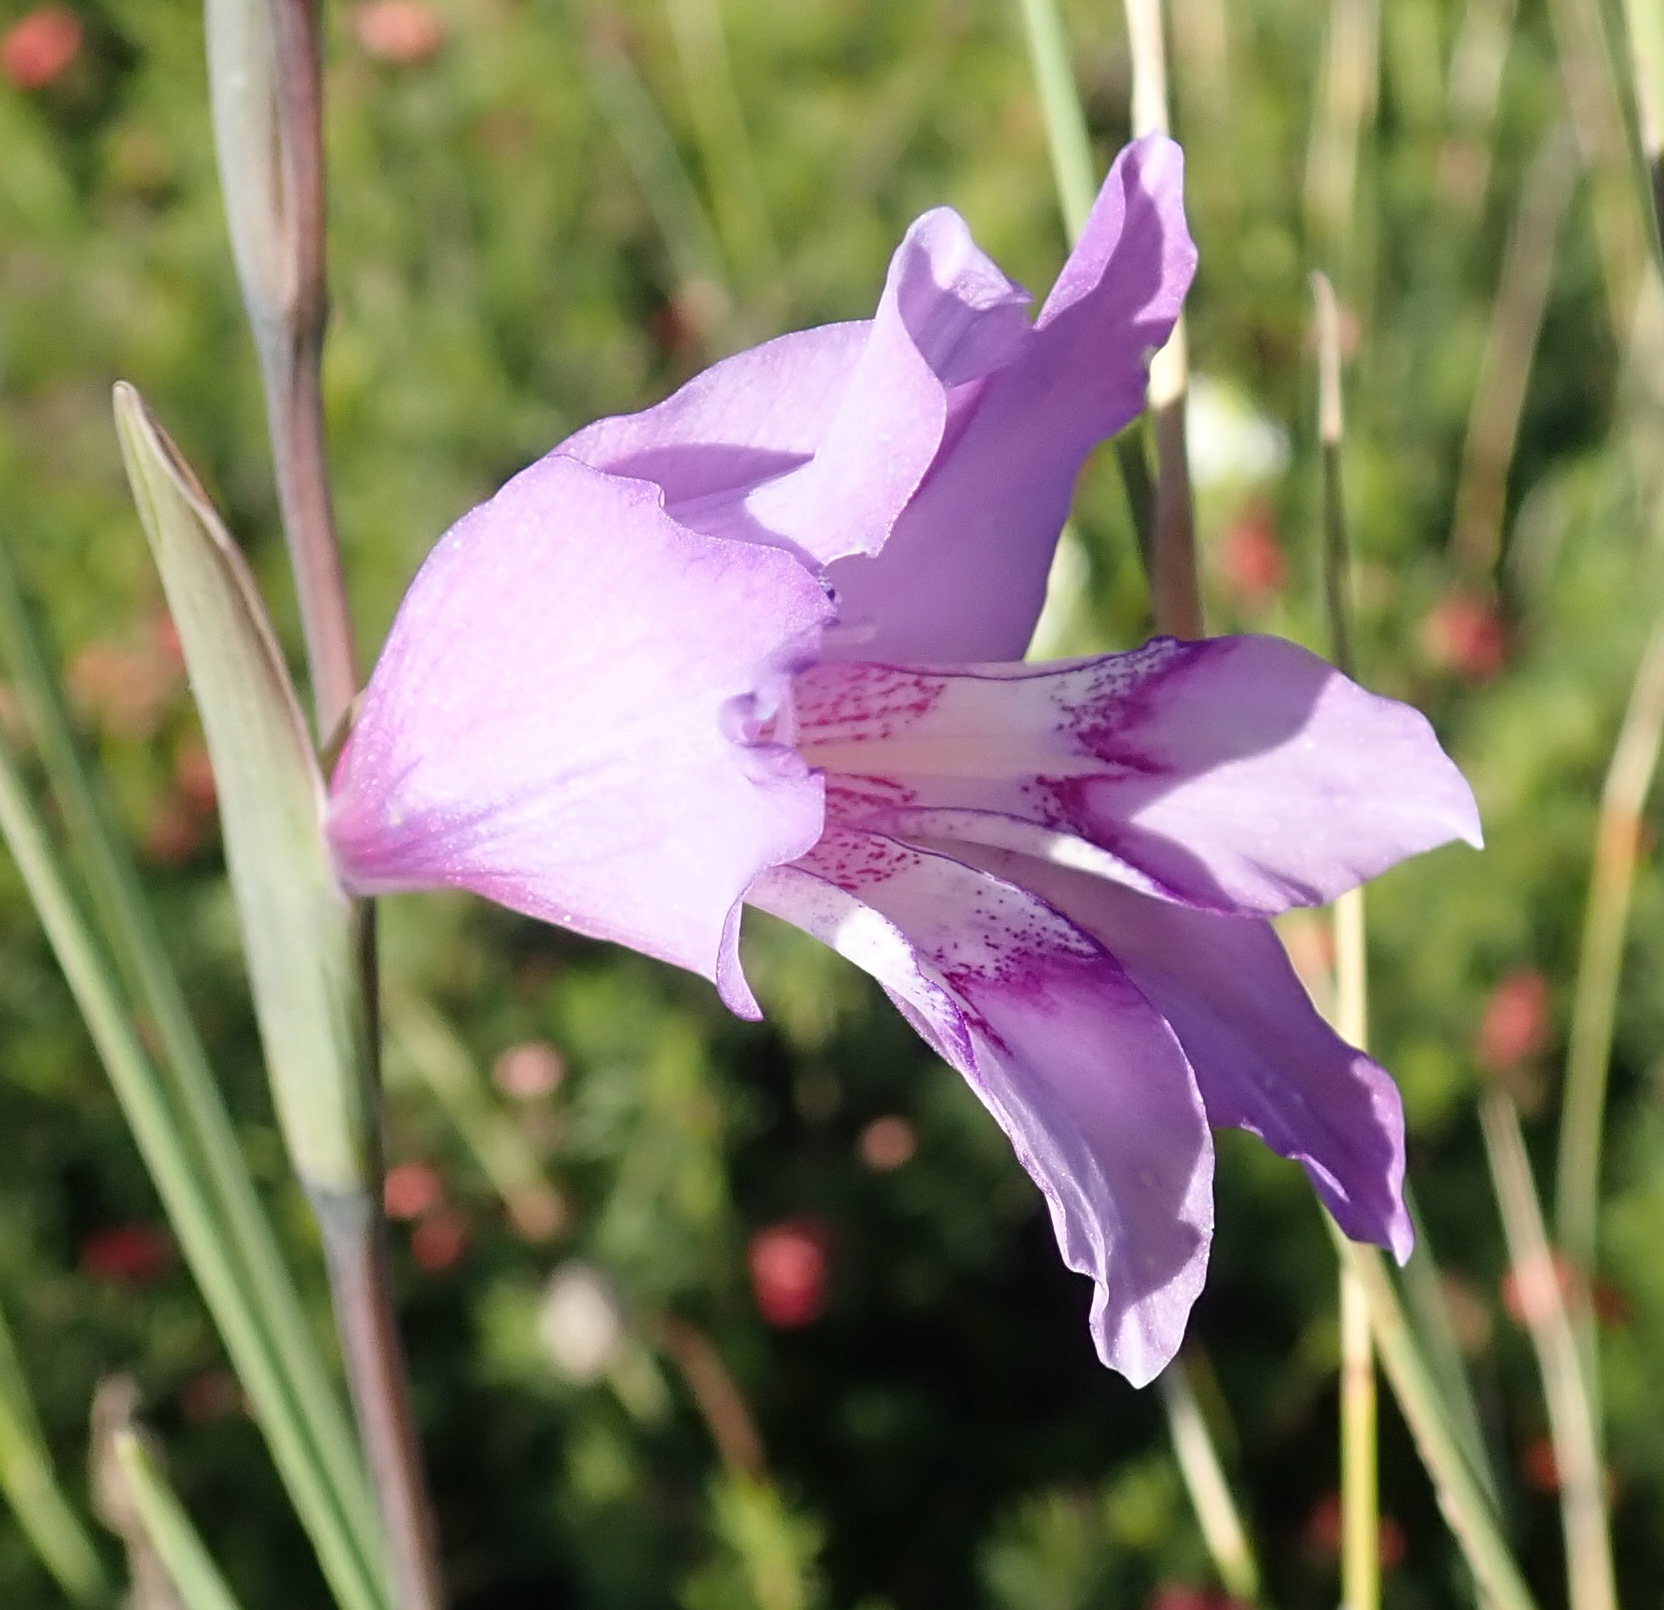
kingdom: Plantae
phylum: Tracheophyta
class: Liliopsida
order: Asparagales
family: Iridaceae
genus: Gladiolus
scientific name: Gladiolus carinatus
